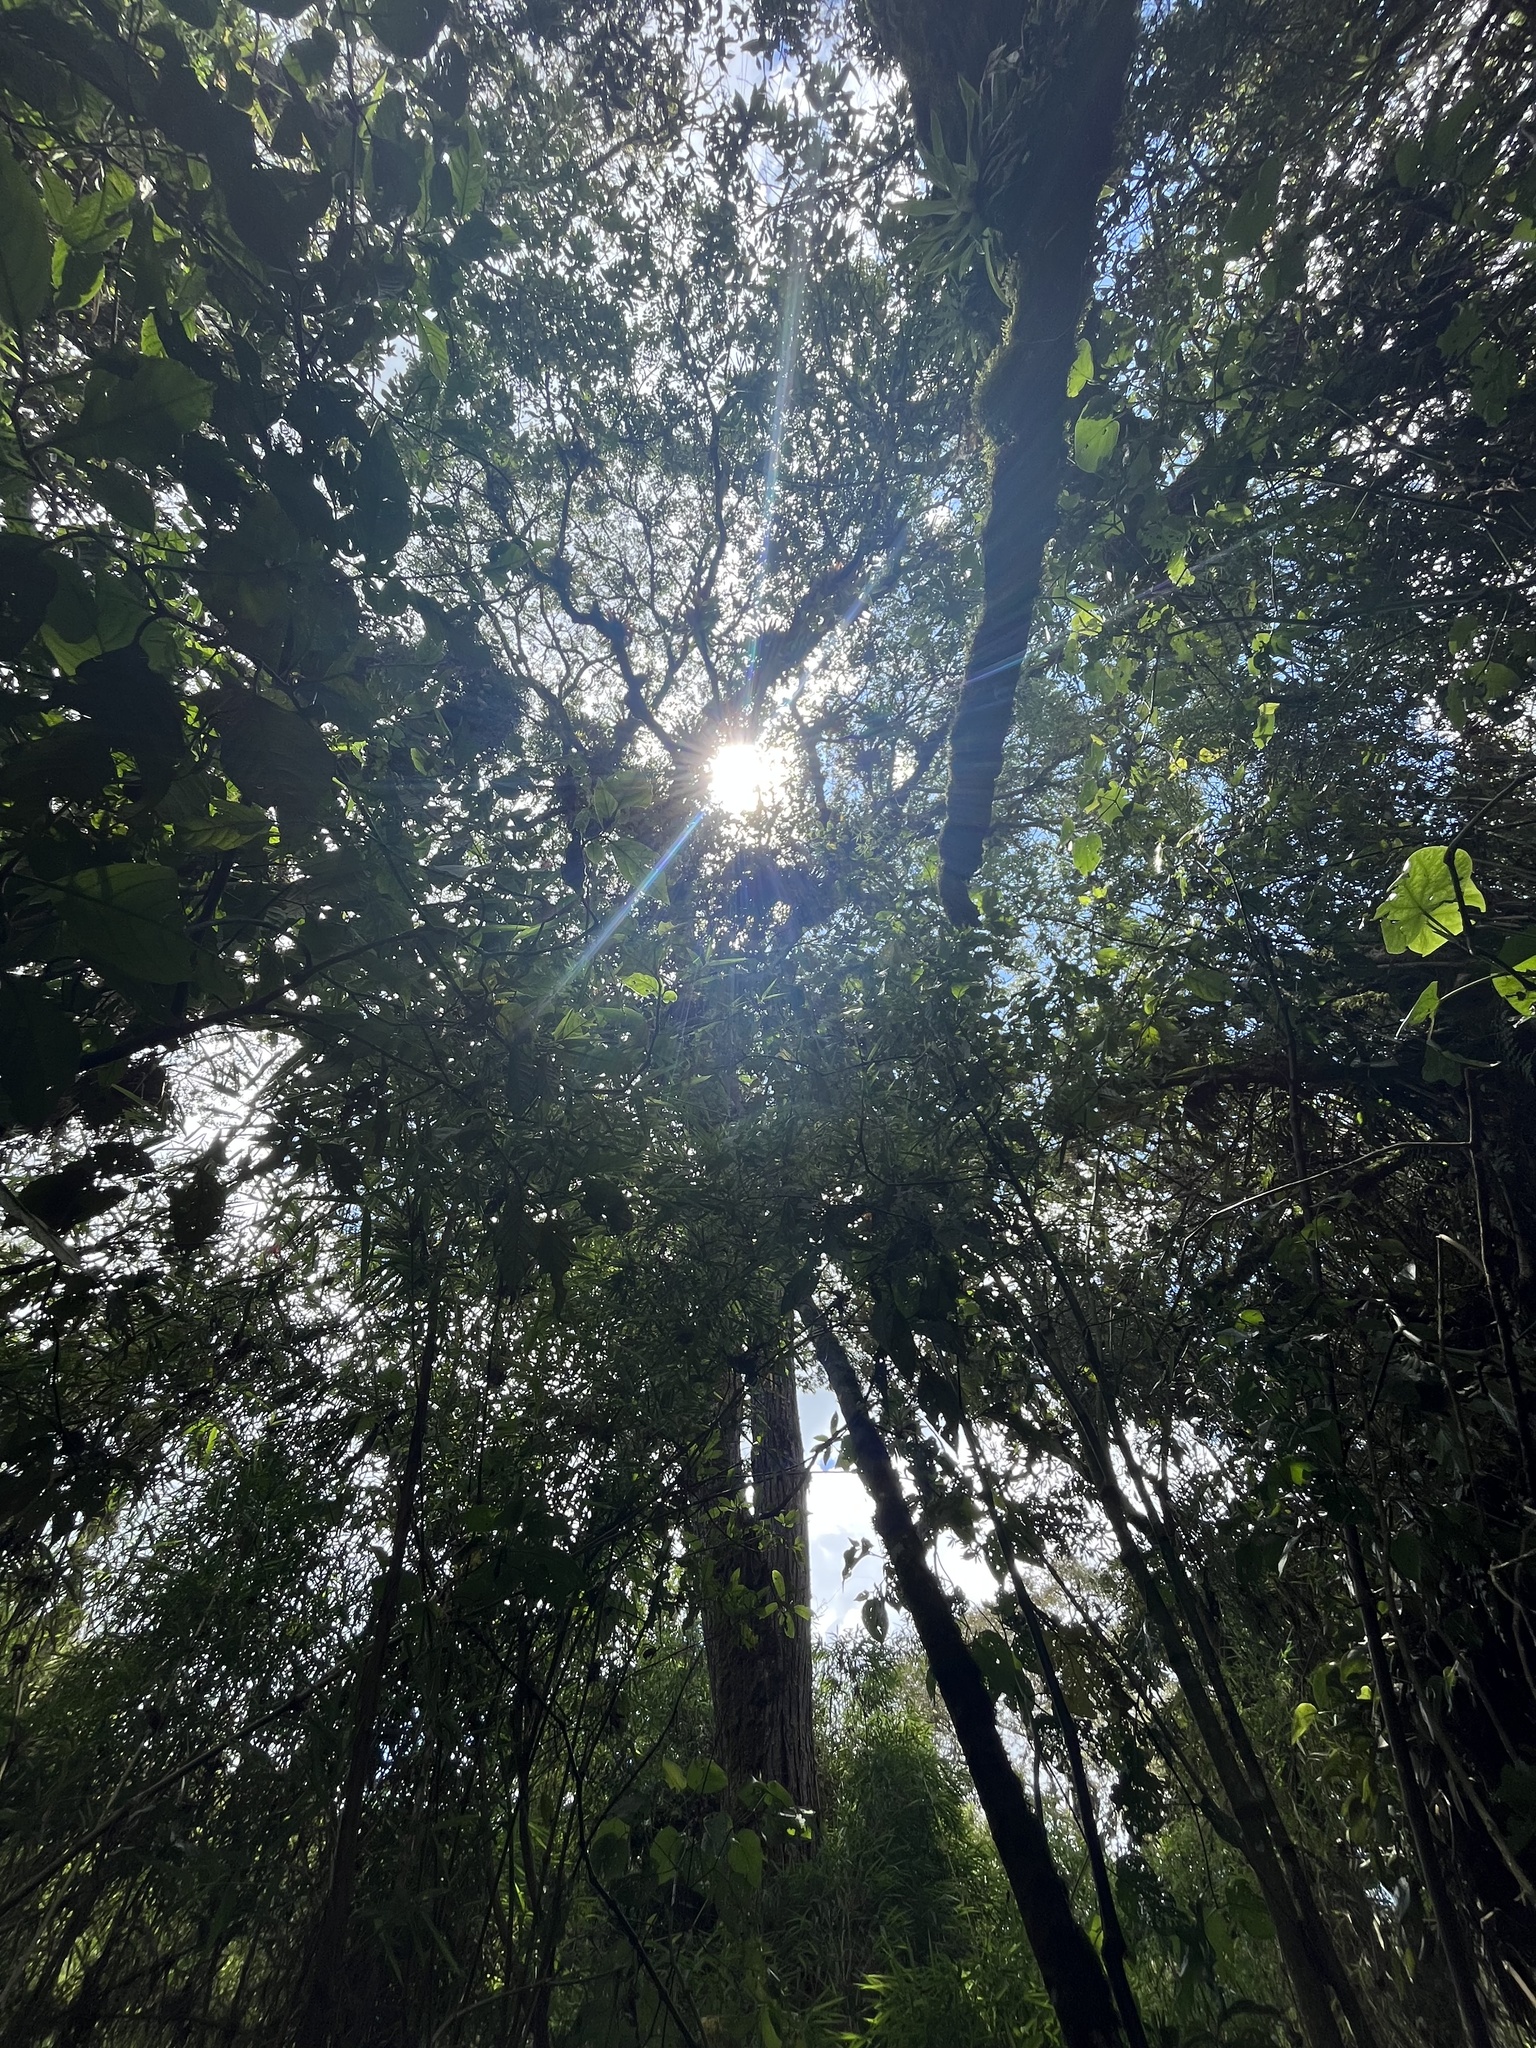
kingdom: Plantae
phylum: Tracheophyta
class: Magnoliopsida
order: Sapindales
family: Meliaceae
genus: Cedrela
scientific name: Cedrela montana
